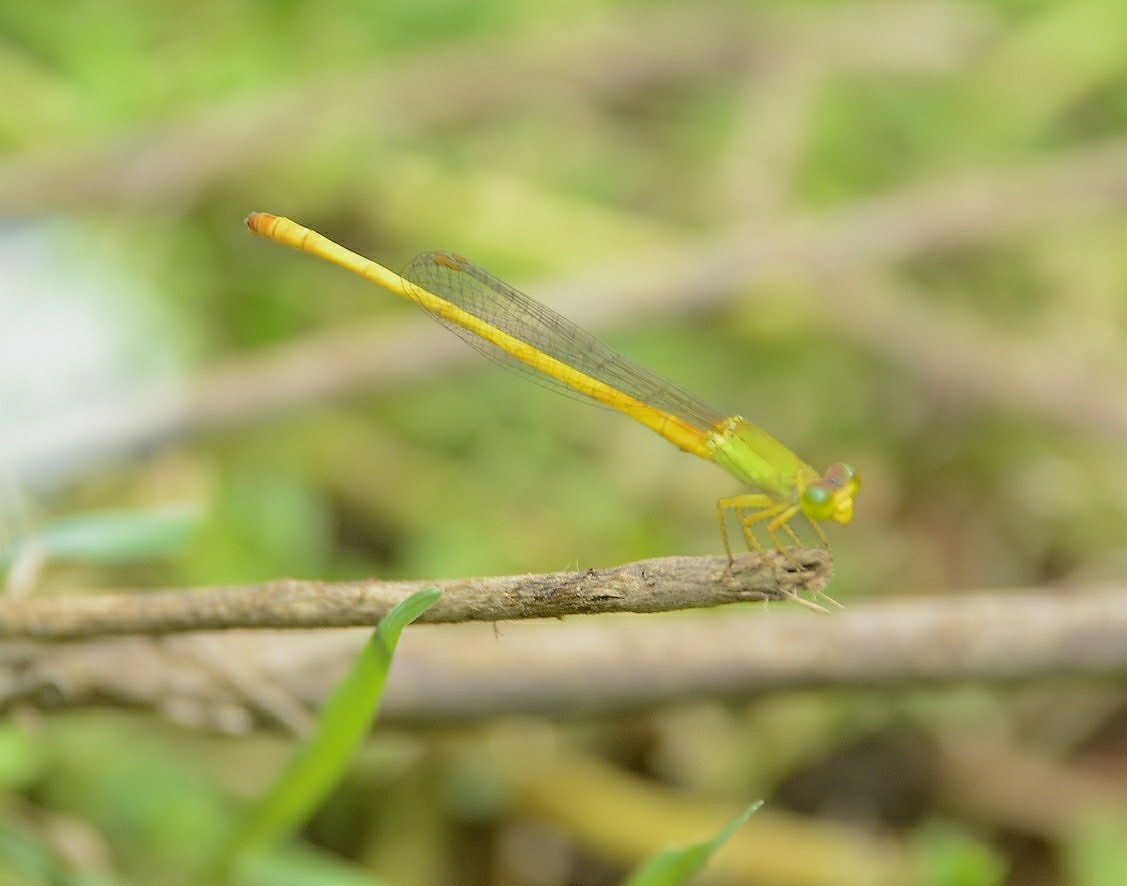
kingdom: Animalia
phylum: Arthropoda
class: Insecta
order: Odonata
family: Coenagrionidae
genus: Ceriagrion
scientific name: Ceriagrion coromandelianum
